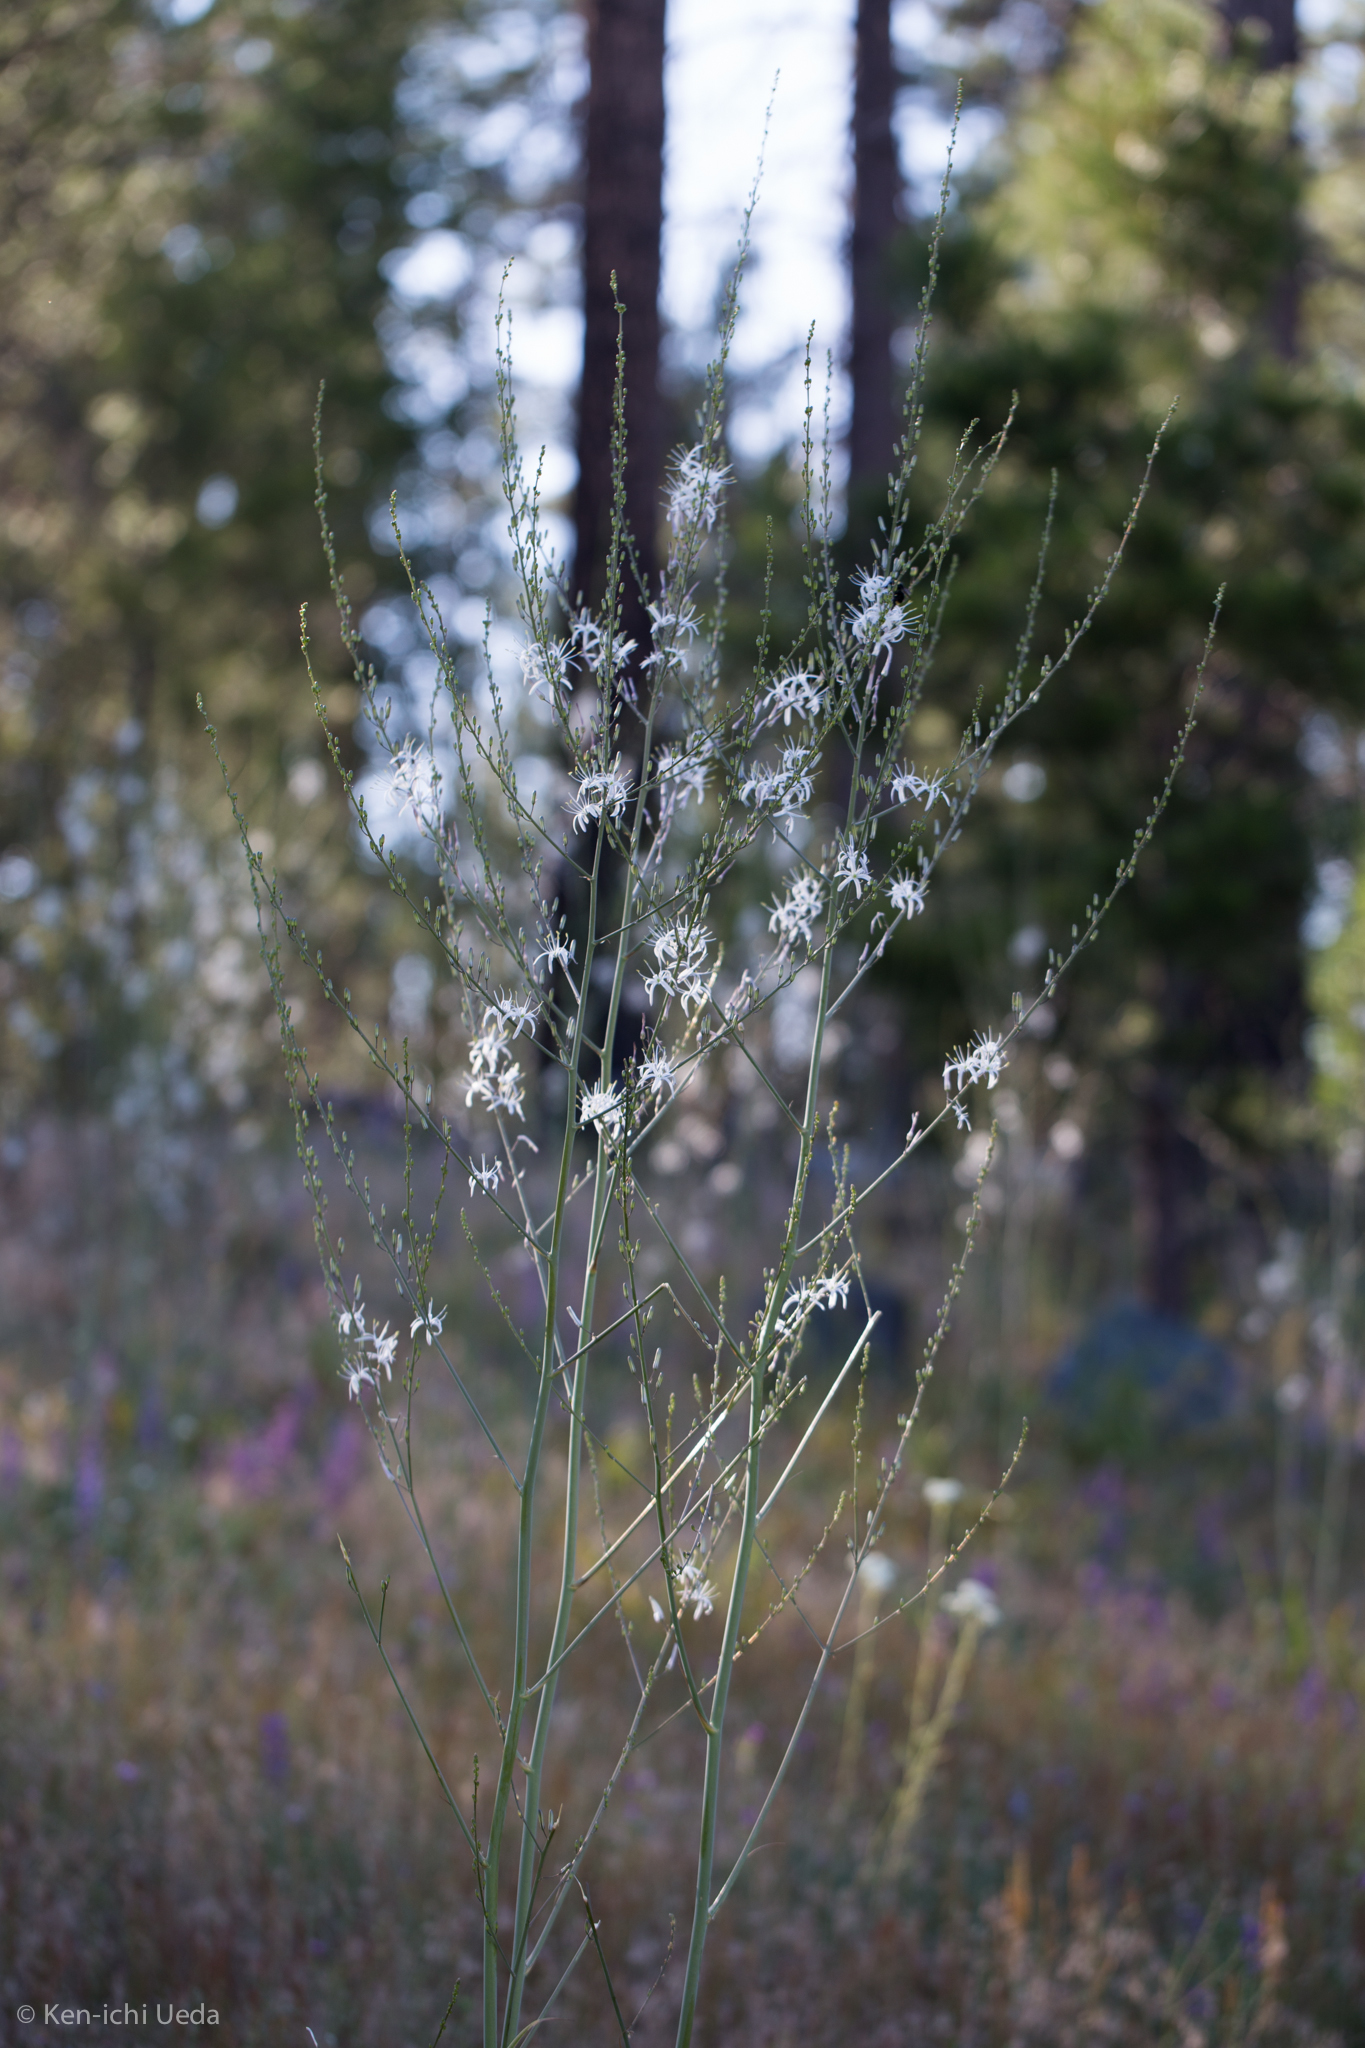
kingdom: Plantae
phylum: Tracheophyta
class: Liliopsida
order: Asparagales
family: Asparagaceae
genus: Chlorogalum
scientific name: Chlorogalum pomeridianum
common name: Amole
